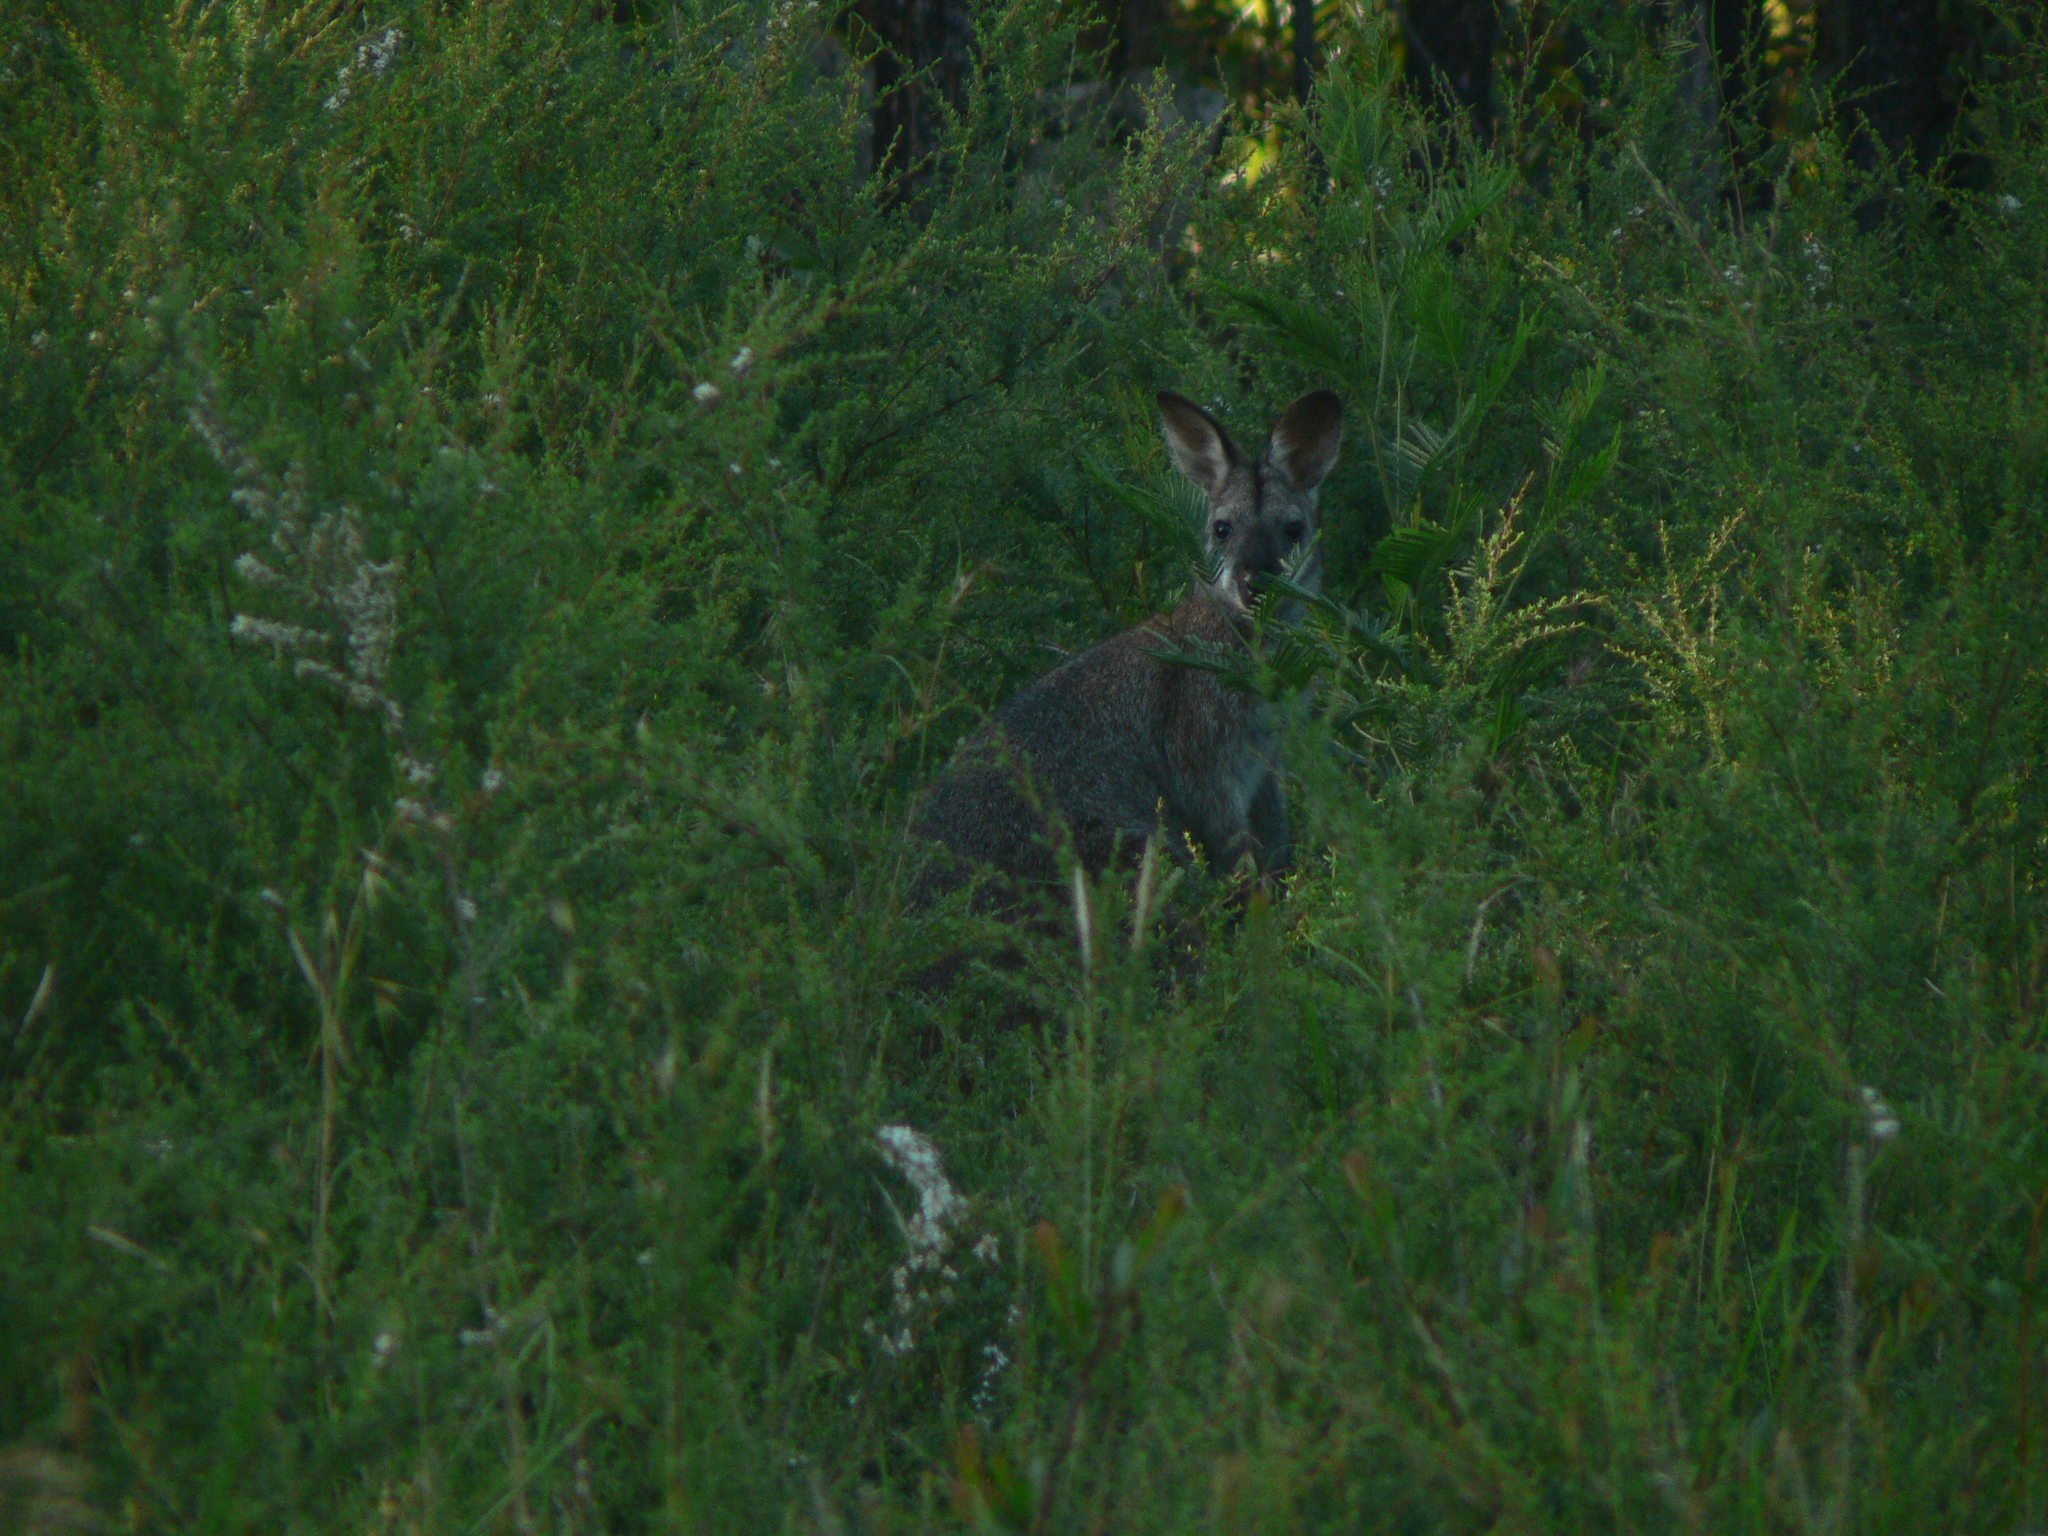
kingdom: Animalia
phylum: Chordata
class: Mammalia
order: Diprotodontia
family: Macropodidae
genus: Notamacropus
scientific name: Notamacropus rufogriseus
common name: Red-necked wallaby
